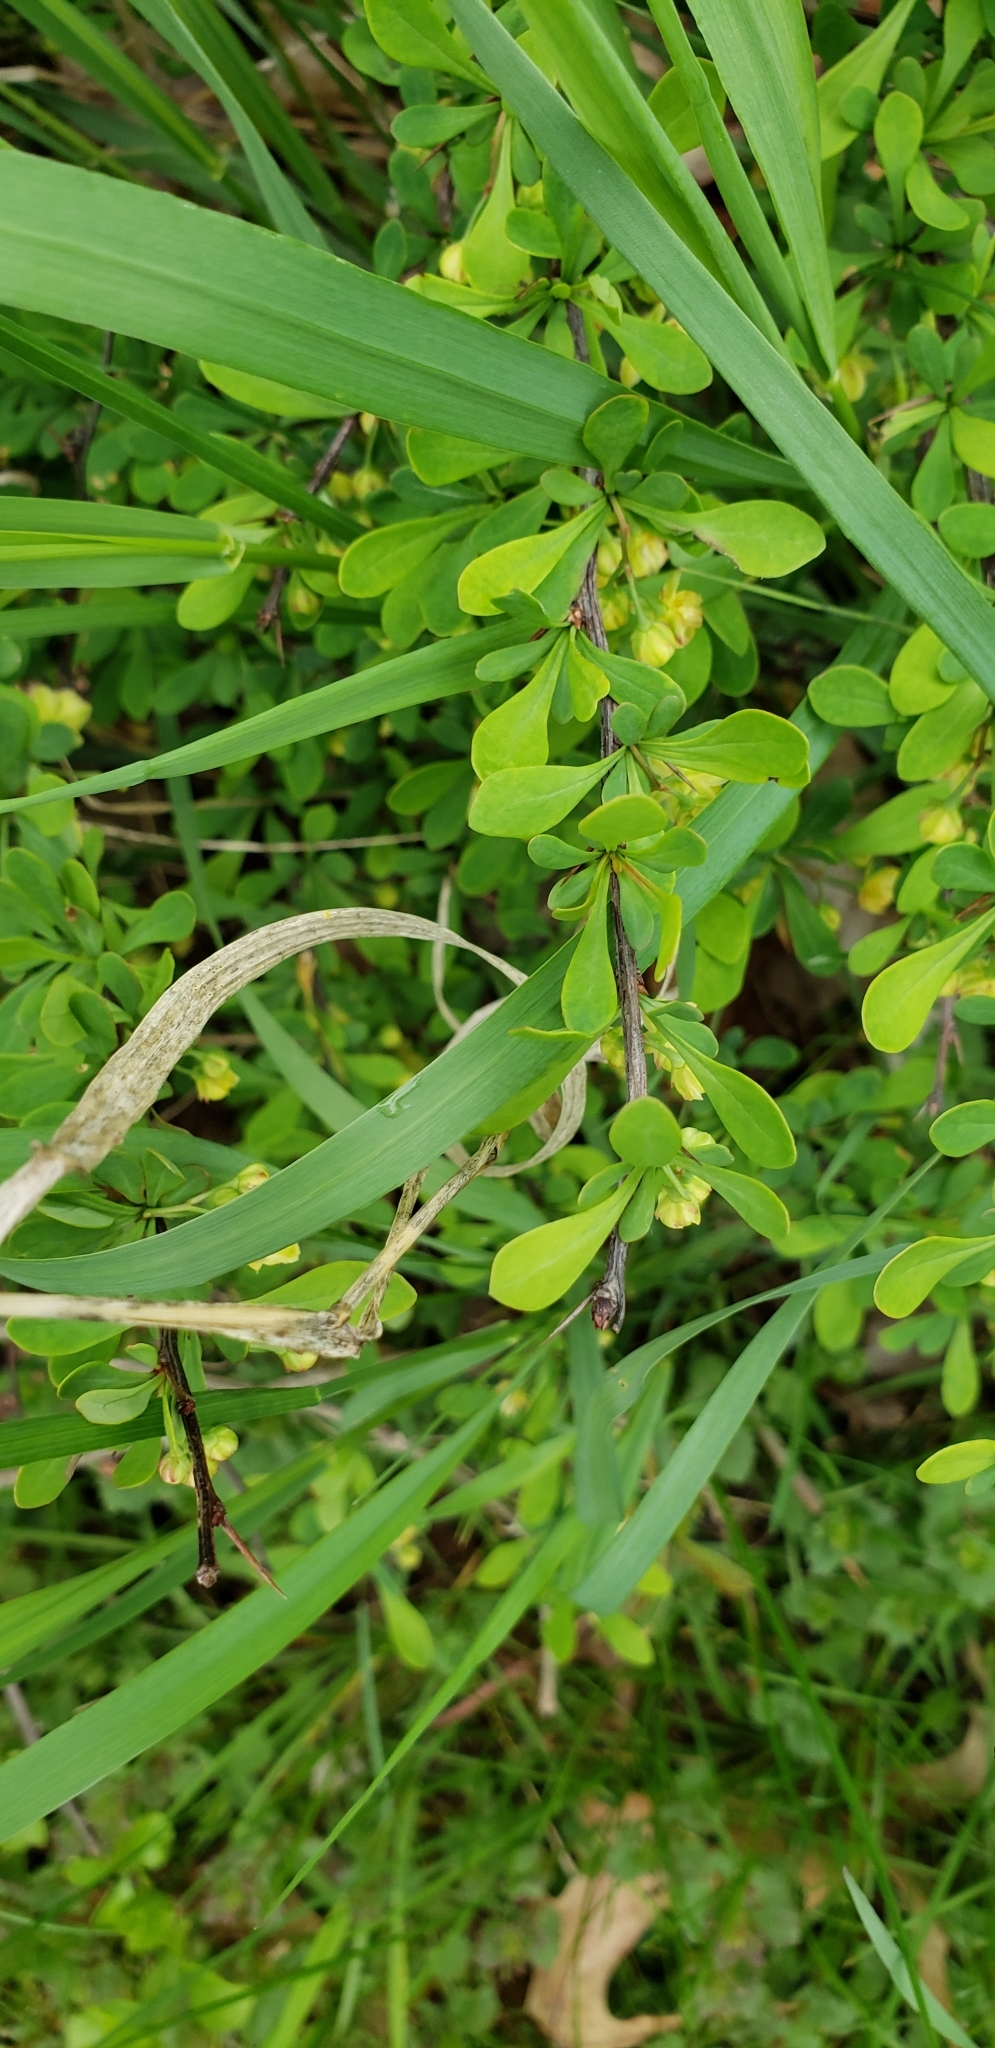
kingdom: Plantae
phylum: Tracheophyta
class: Magnoliopsida
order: Ranunculales
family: Berberidaceae
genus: Berberis
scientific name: Berberis thunbergii
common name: Japanese barberry
